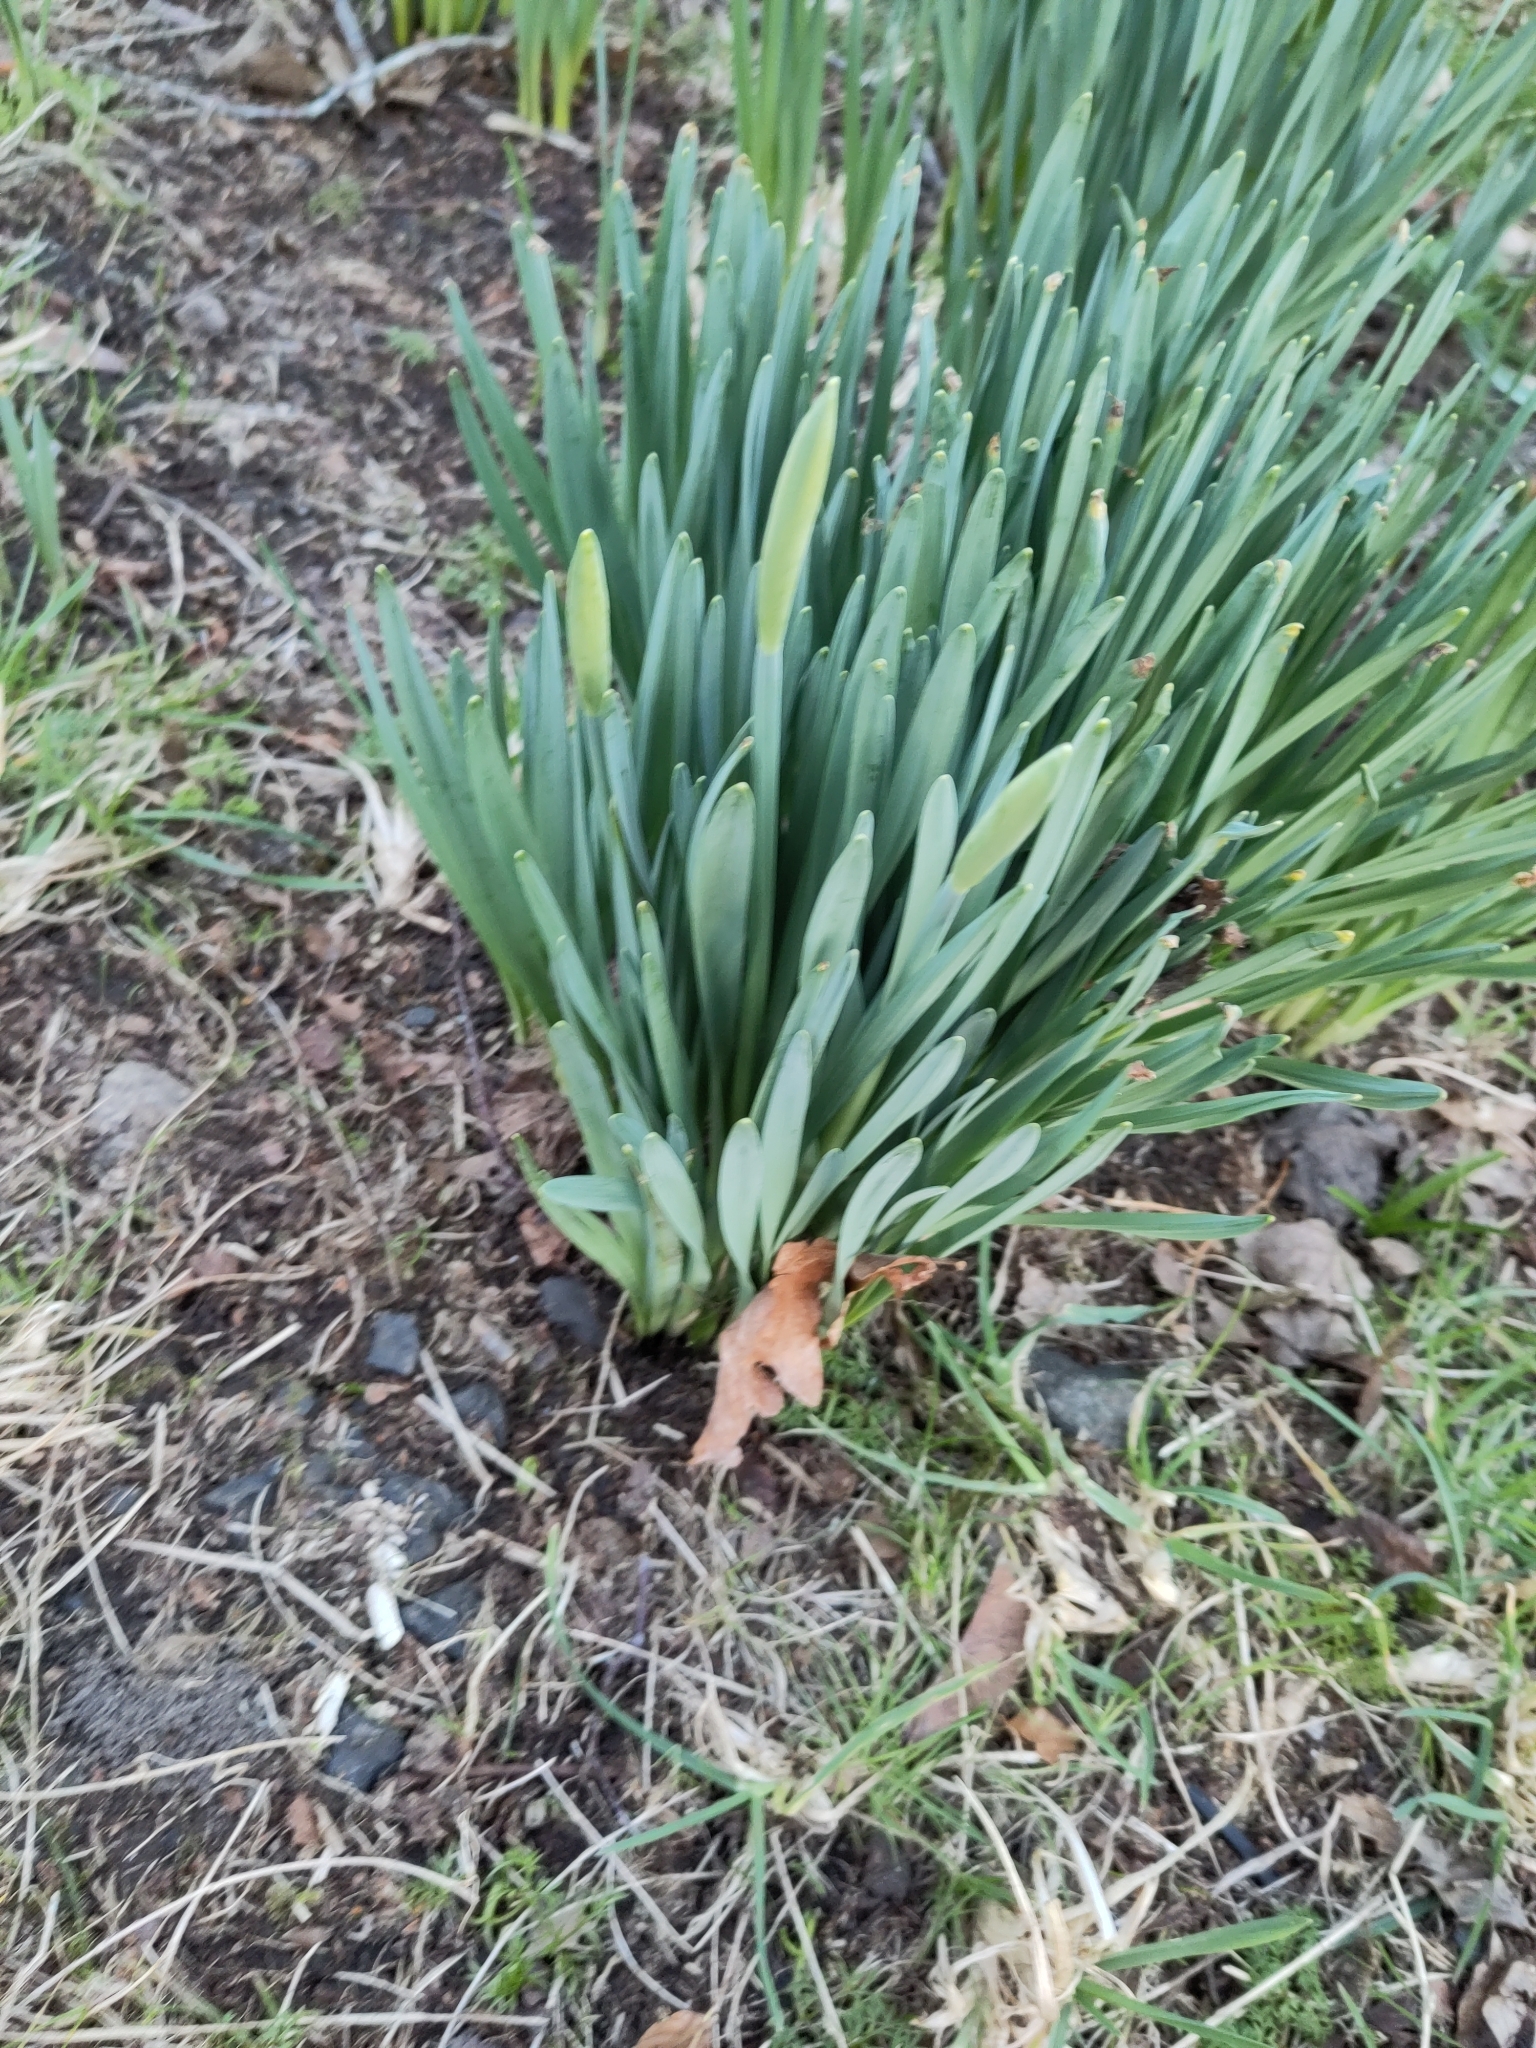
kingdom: Plantae
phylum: Tracheophyta
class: Liliopsida
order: Asparagales
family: Amaryllidaceae
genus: Narcissus
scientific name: Narcissus pseudonarcissus
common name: Daffodil
